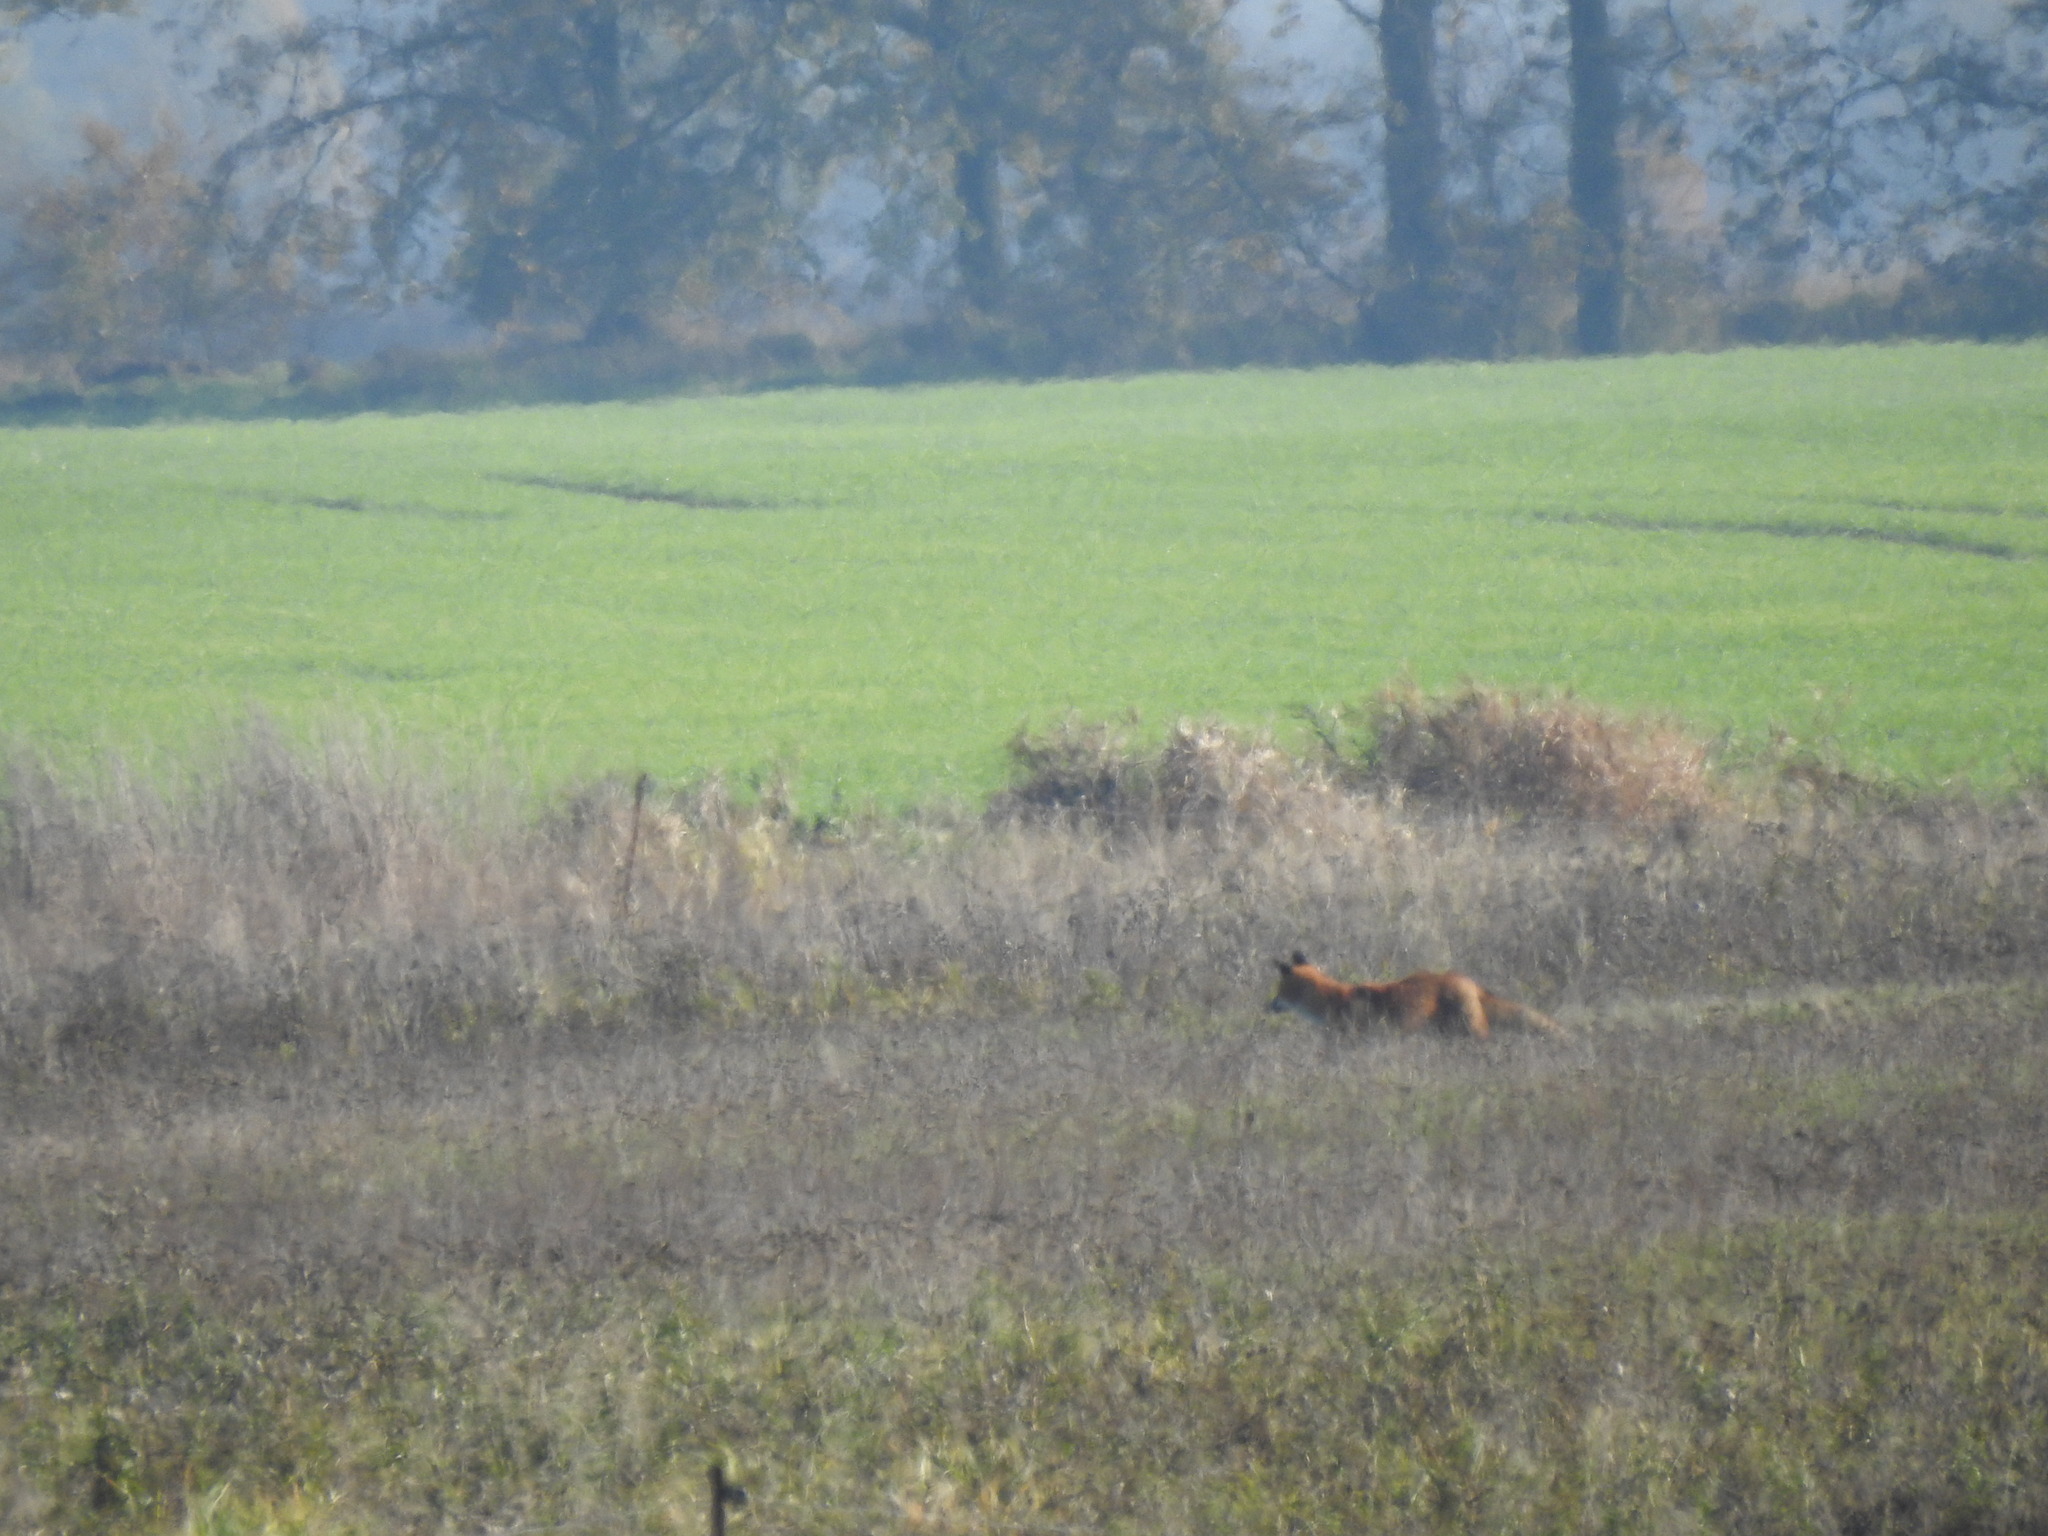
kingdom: Animalia
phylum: Chordata
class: Mammalia
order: Carnivora
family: Canidae
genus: Vulpes
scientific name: Vulpes vulpes
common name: Red fox
